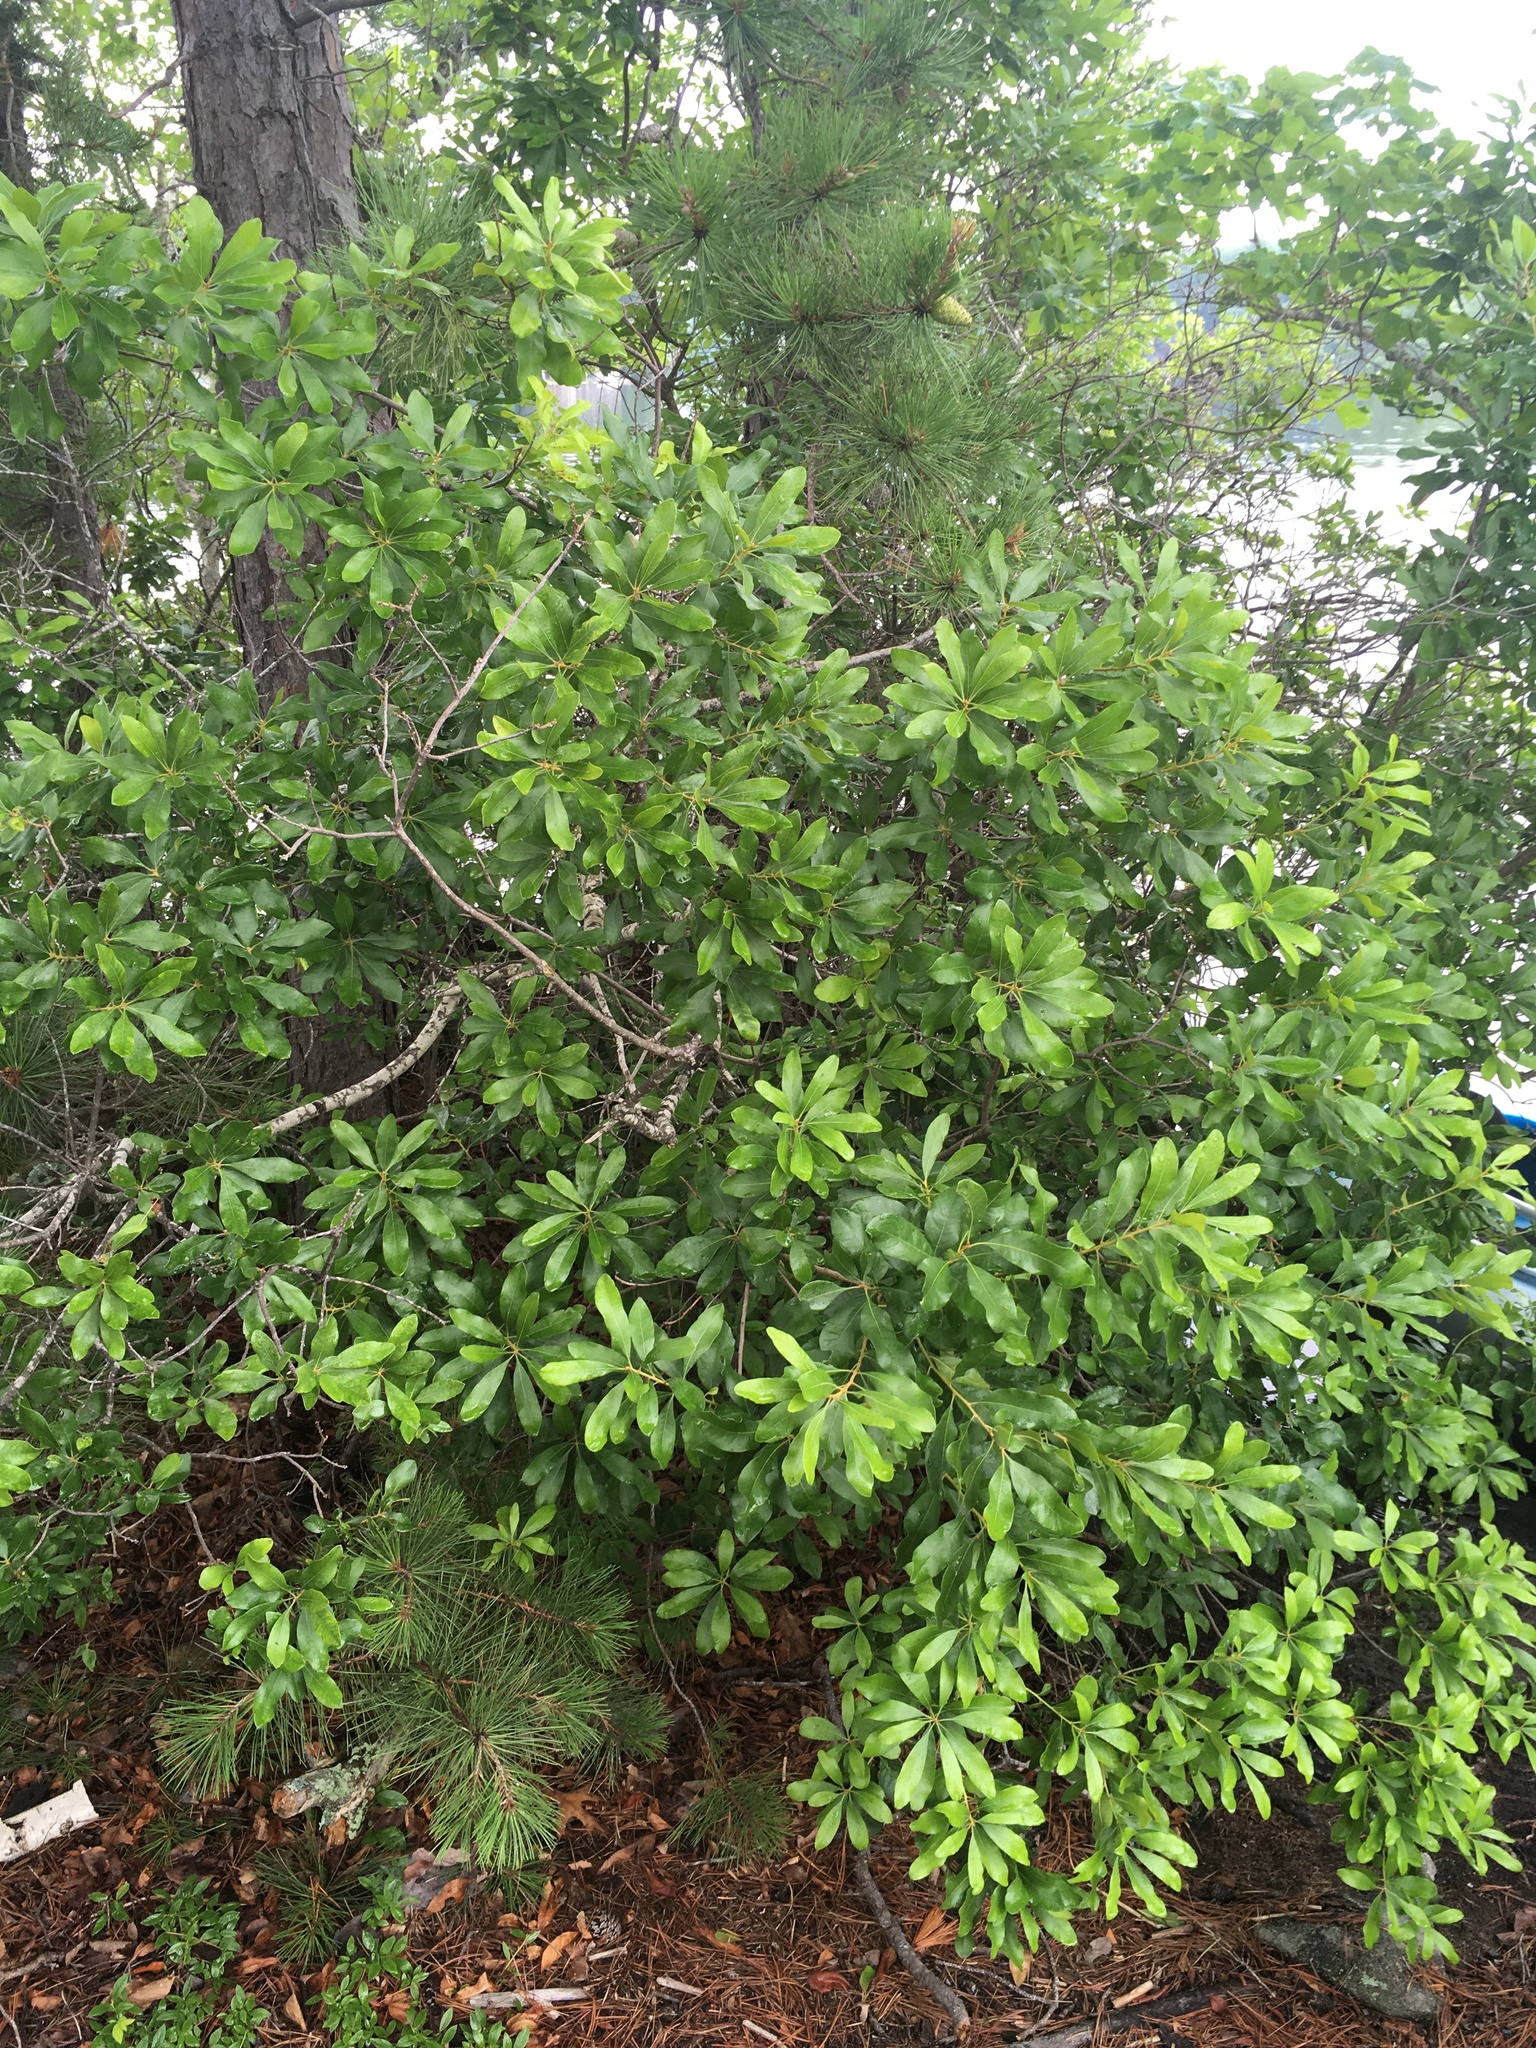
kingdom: Plantae
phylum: Tracheophyta
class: Magnoliopsida
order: Fagales
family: Myricaceae
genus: Morella
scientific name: Morella pensylvanica
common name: Northern bayberry
